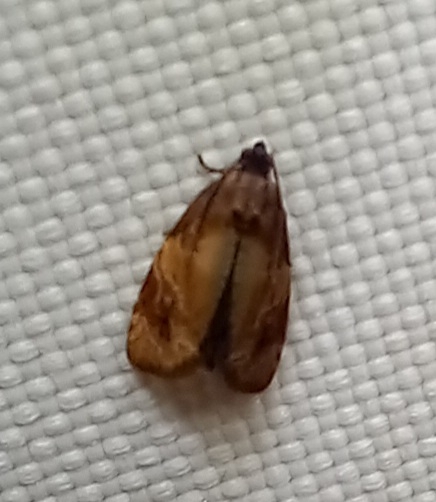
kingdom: Animalia
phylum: Arthropoda
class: Insecta
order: Lepidoptera
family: Tortricidae
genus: Ditula
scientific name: Ditula angustiorana
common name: Red-barred tortrix
